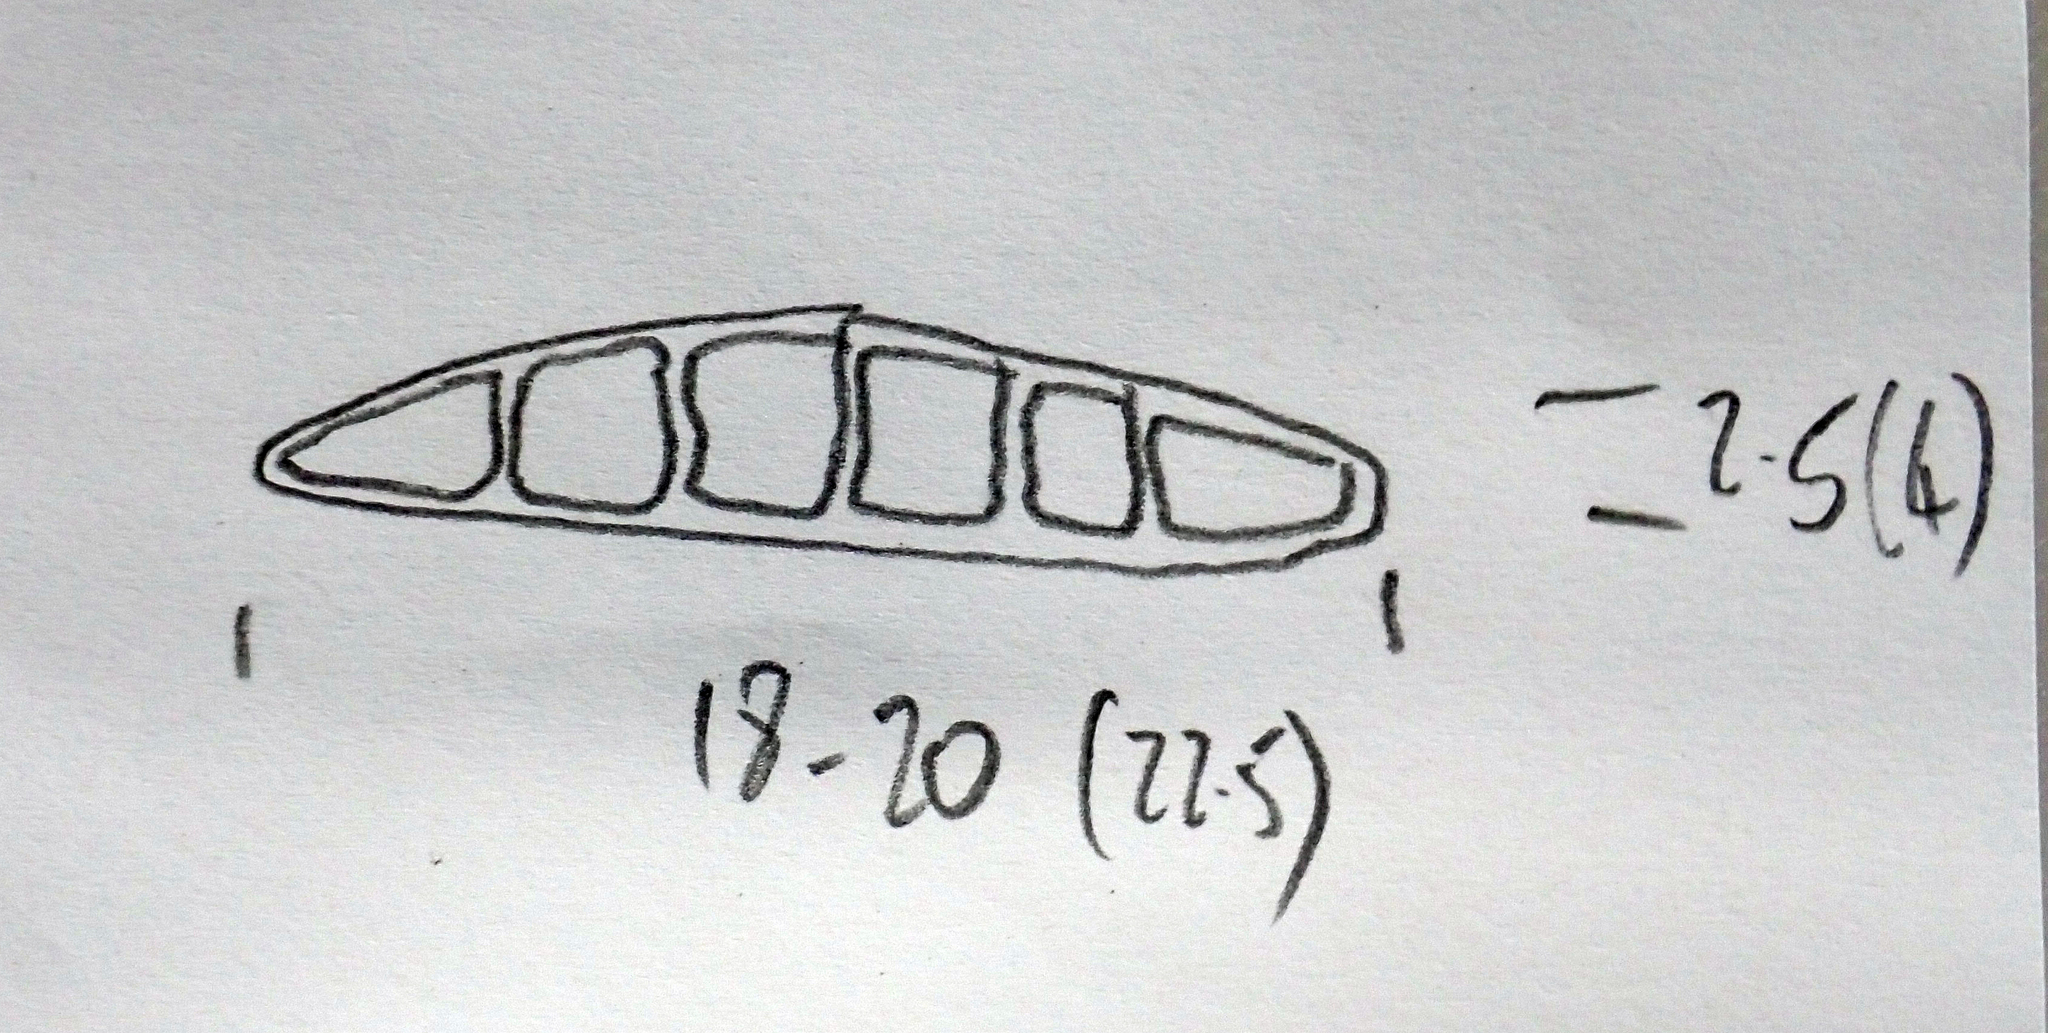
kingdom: Fungi
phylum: Ascomycota
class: Arthoniomycetes
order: Arthoniales
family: Opegraphaceae
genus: Opegrapha
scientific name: Opegrapha intertexta
